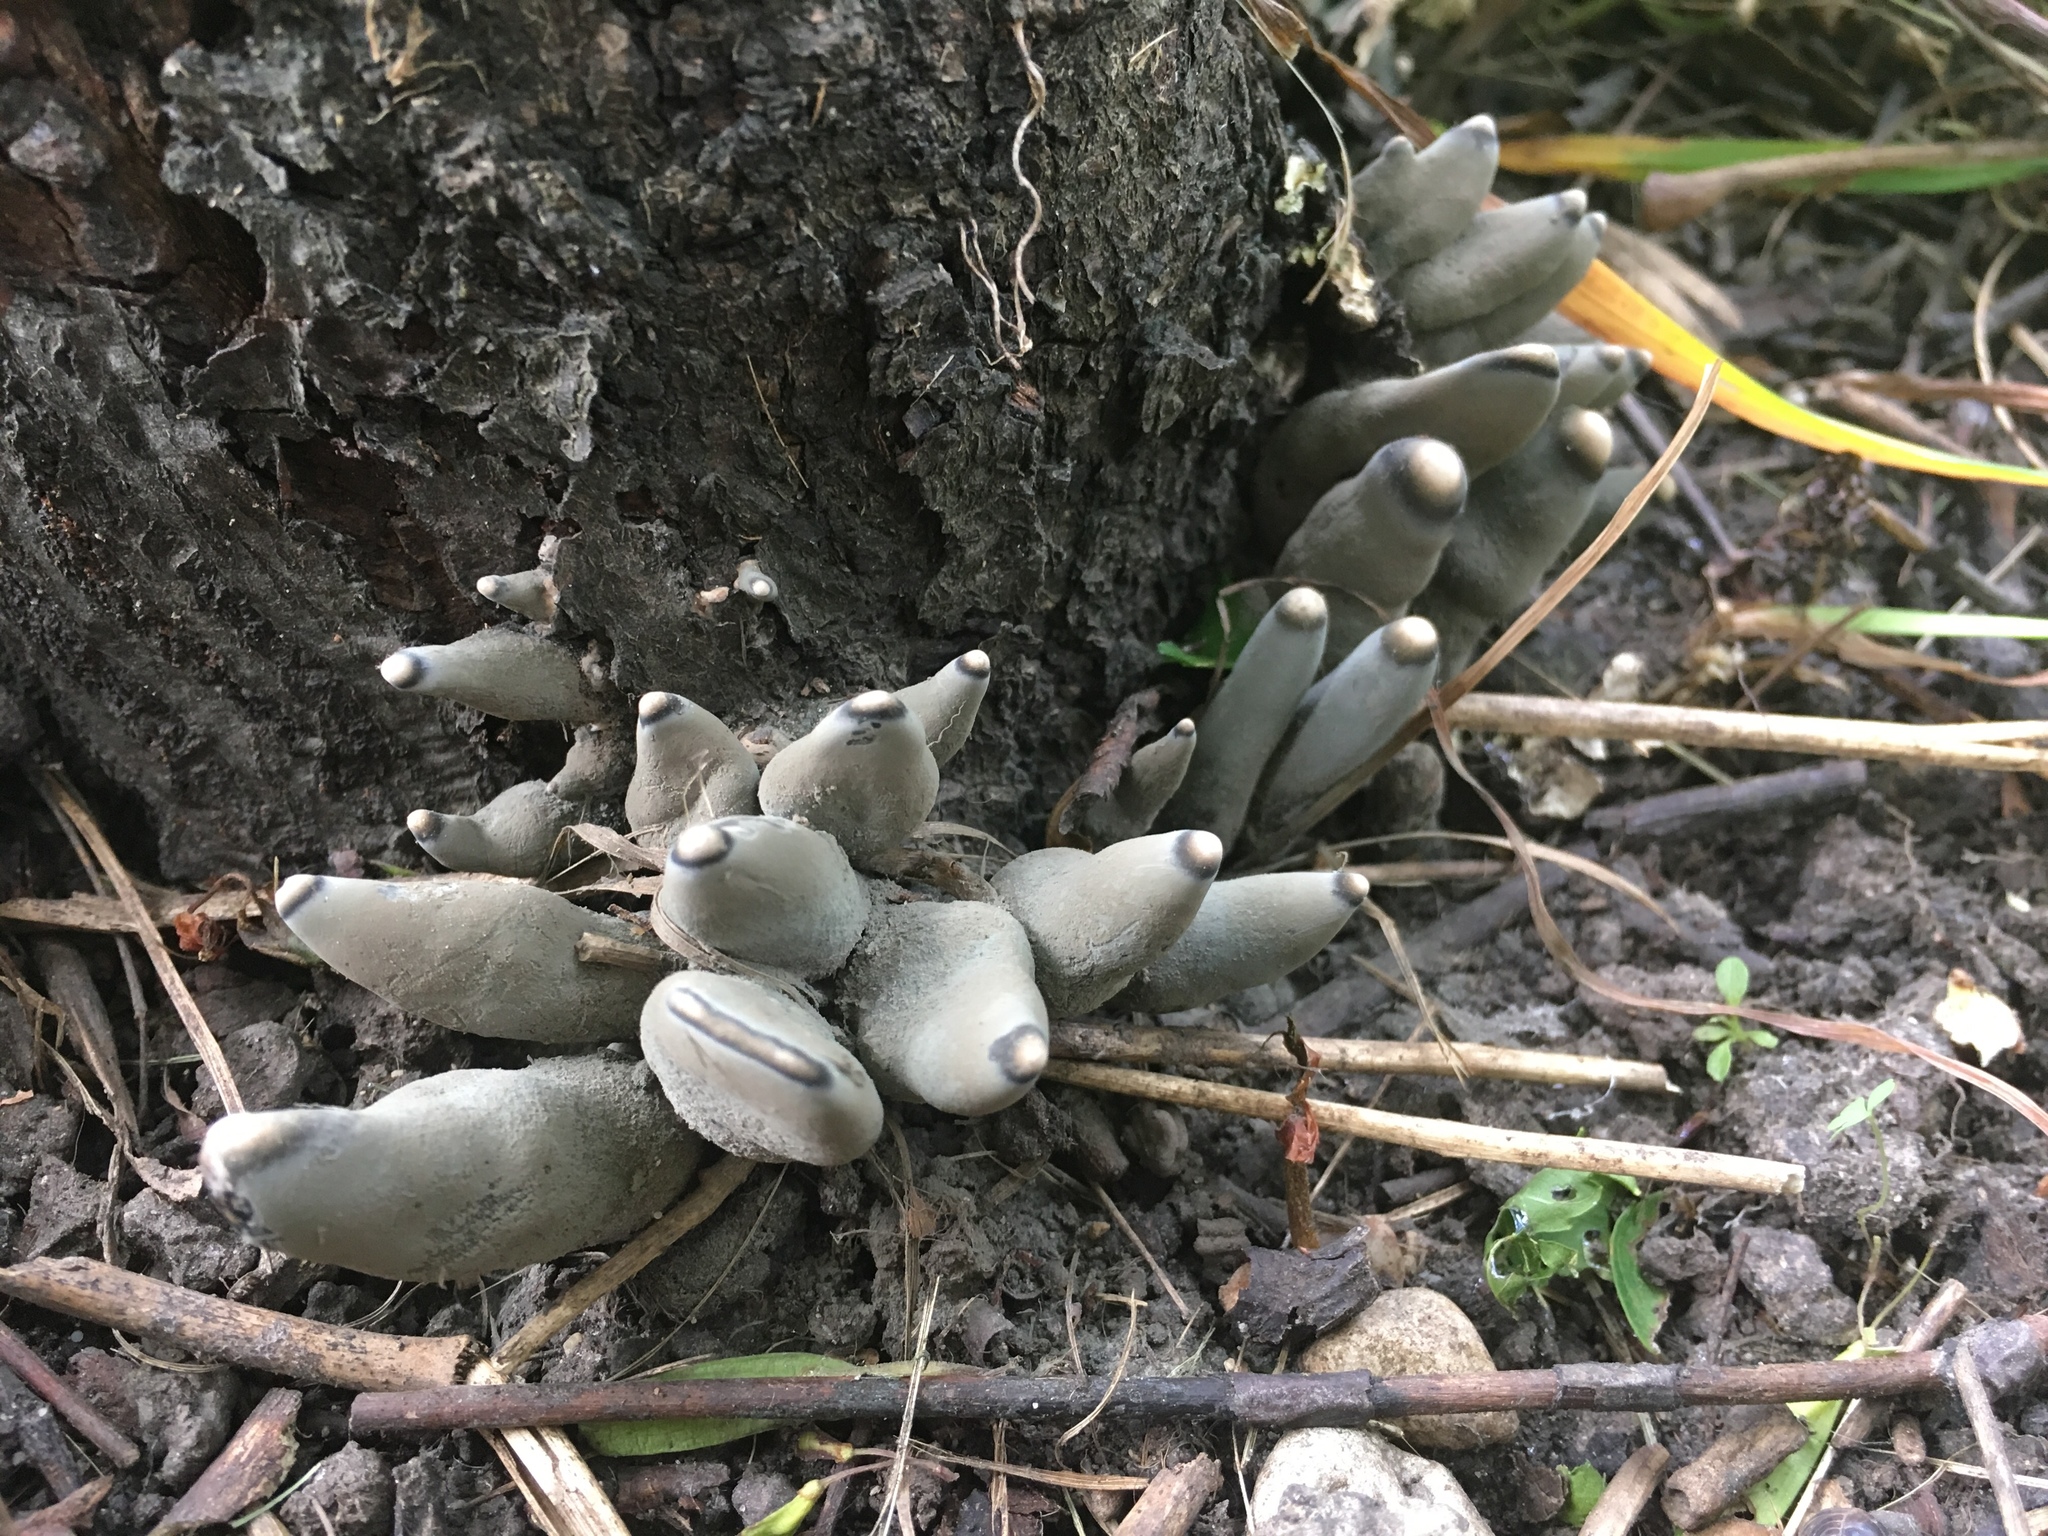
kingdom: Fungi
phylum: Ascomycota
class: Sordariomycetes
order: Xylariales
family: Xylariaceae
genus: Xylaria
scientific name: Xylaria polymorpha
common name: Dead man's fingers
